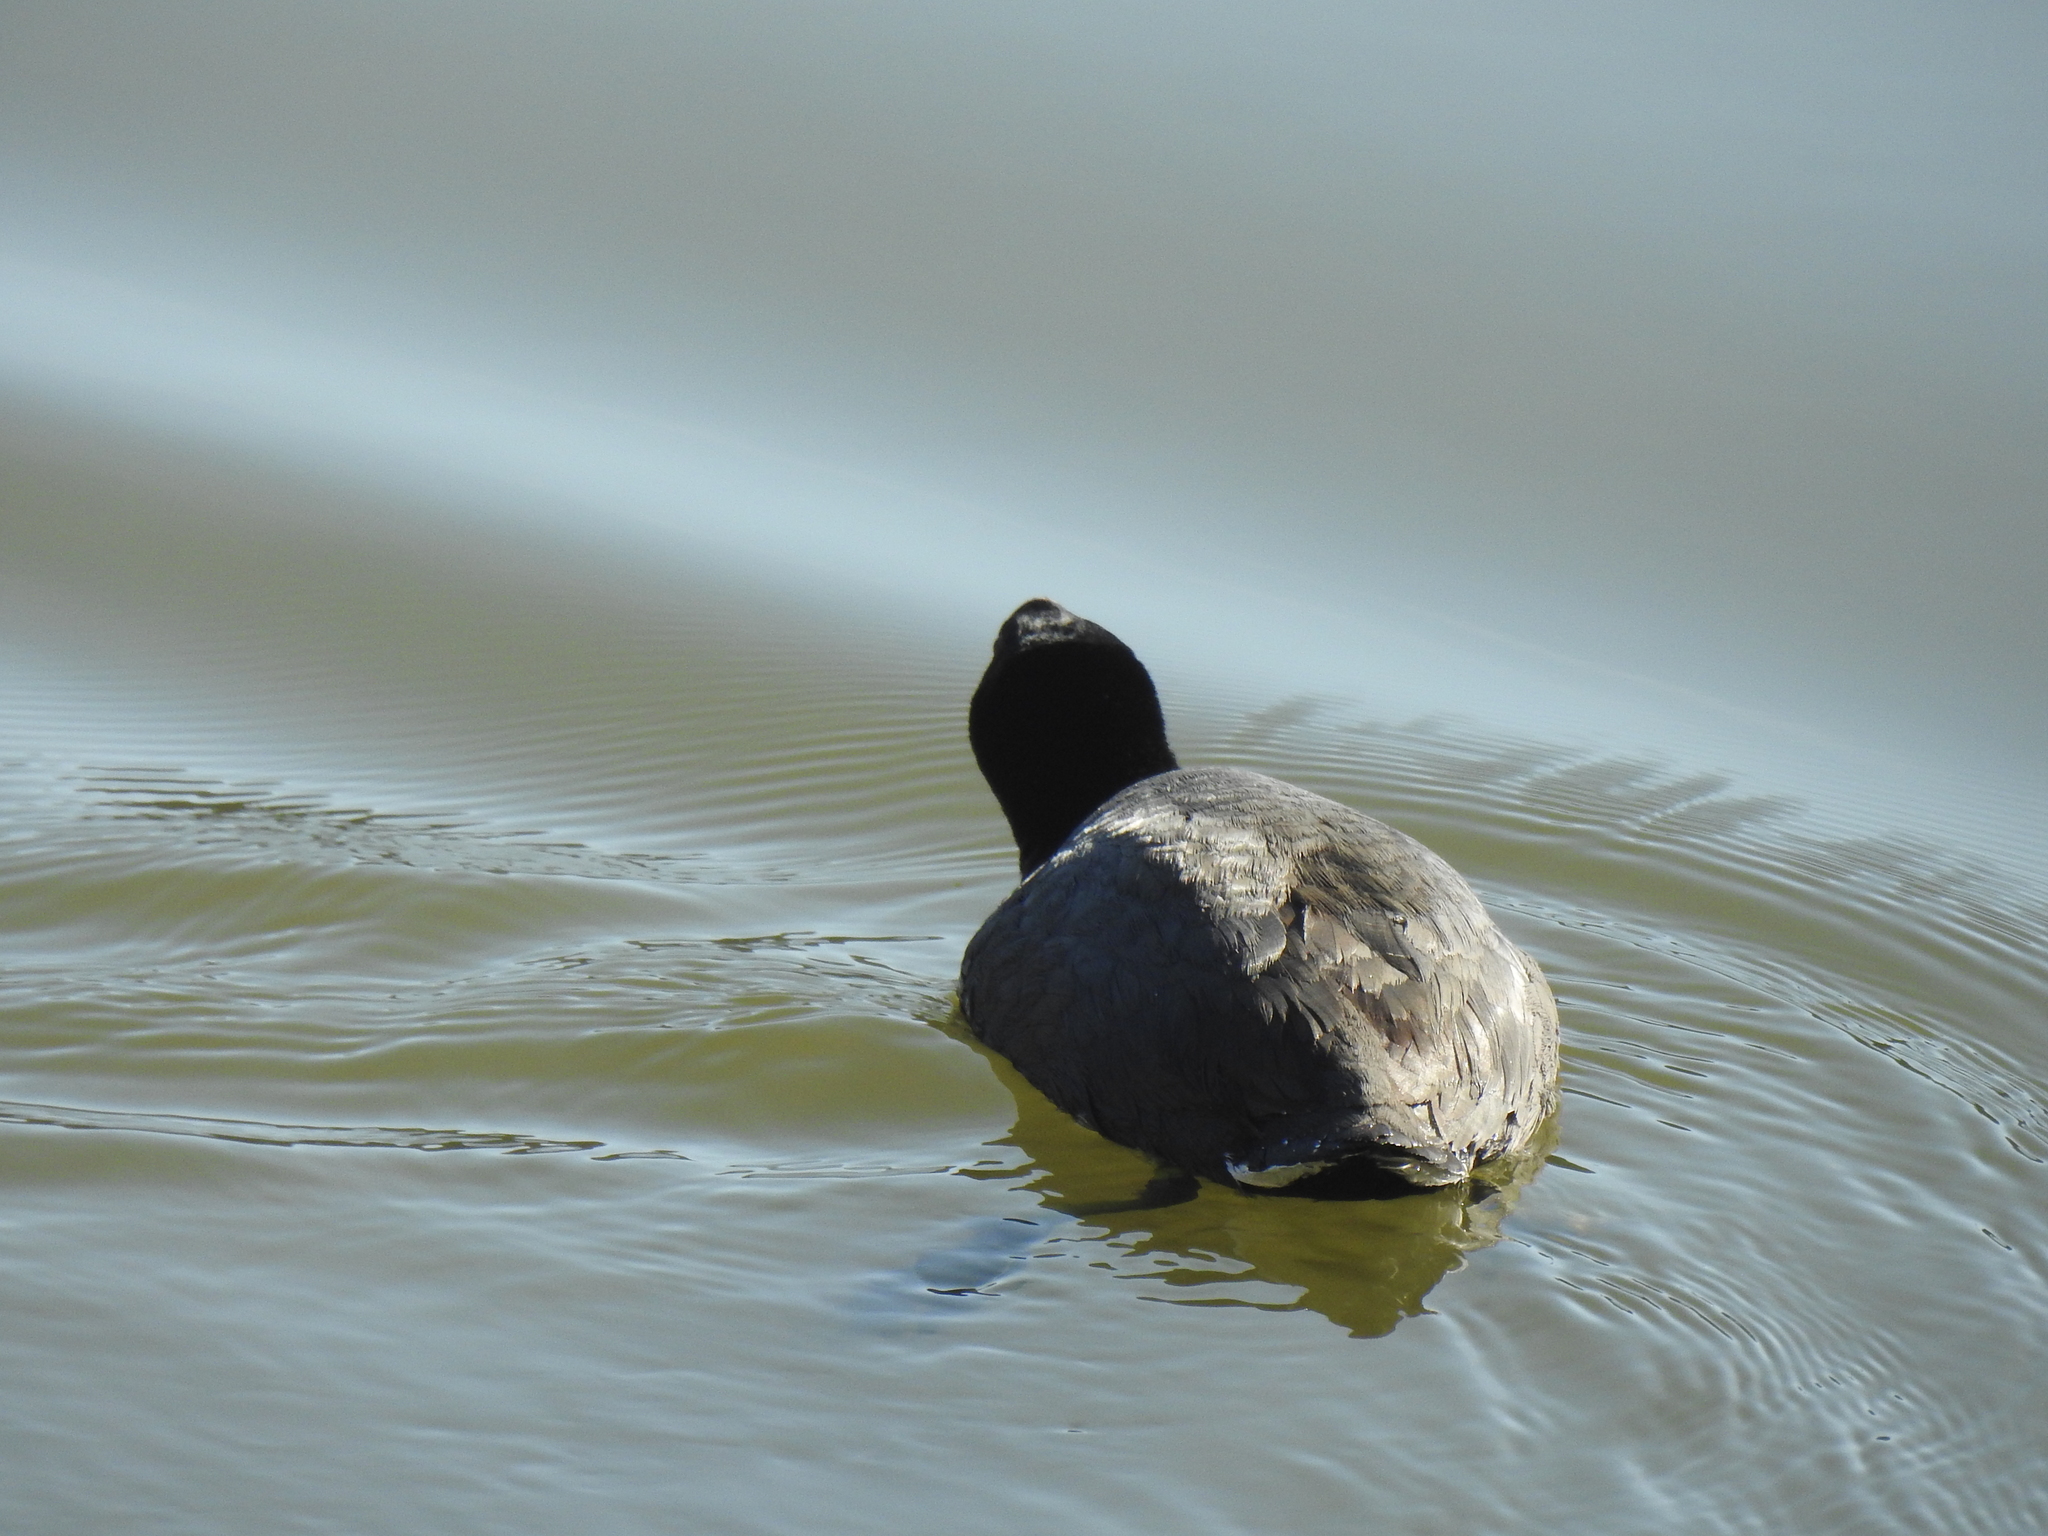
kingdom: Animalia
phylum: Chordata
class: Aves
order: Gruiformes
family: Rallidae
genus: Fulica
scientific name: Fulica americana
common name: American coot
